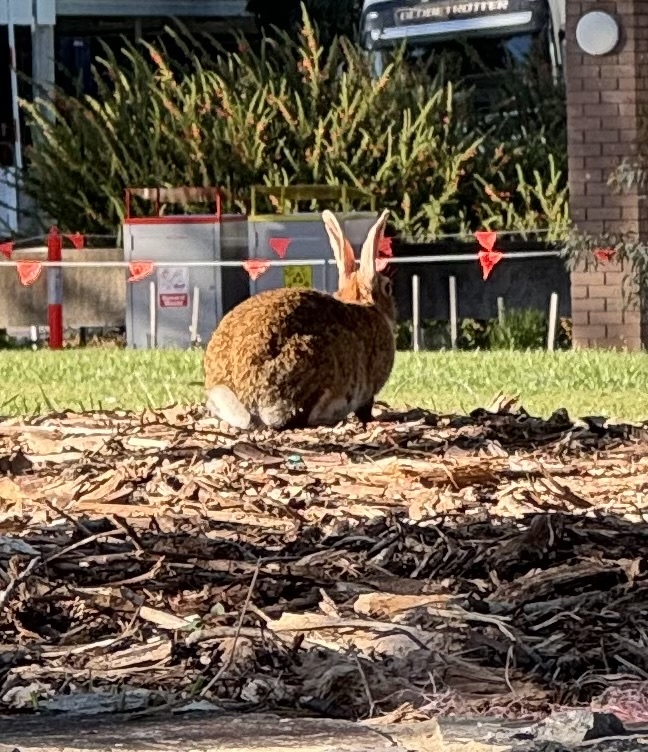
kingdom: Animalia
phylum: Chordata
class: Mammalia
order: Lagomorpha
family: Leporidae
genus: Oryctolagus
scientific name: Oryctolagus cuniculus
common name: European rabbit
